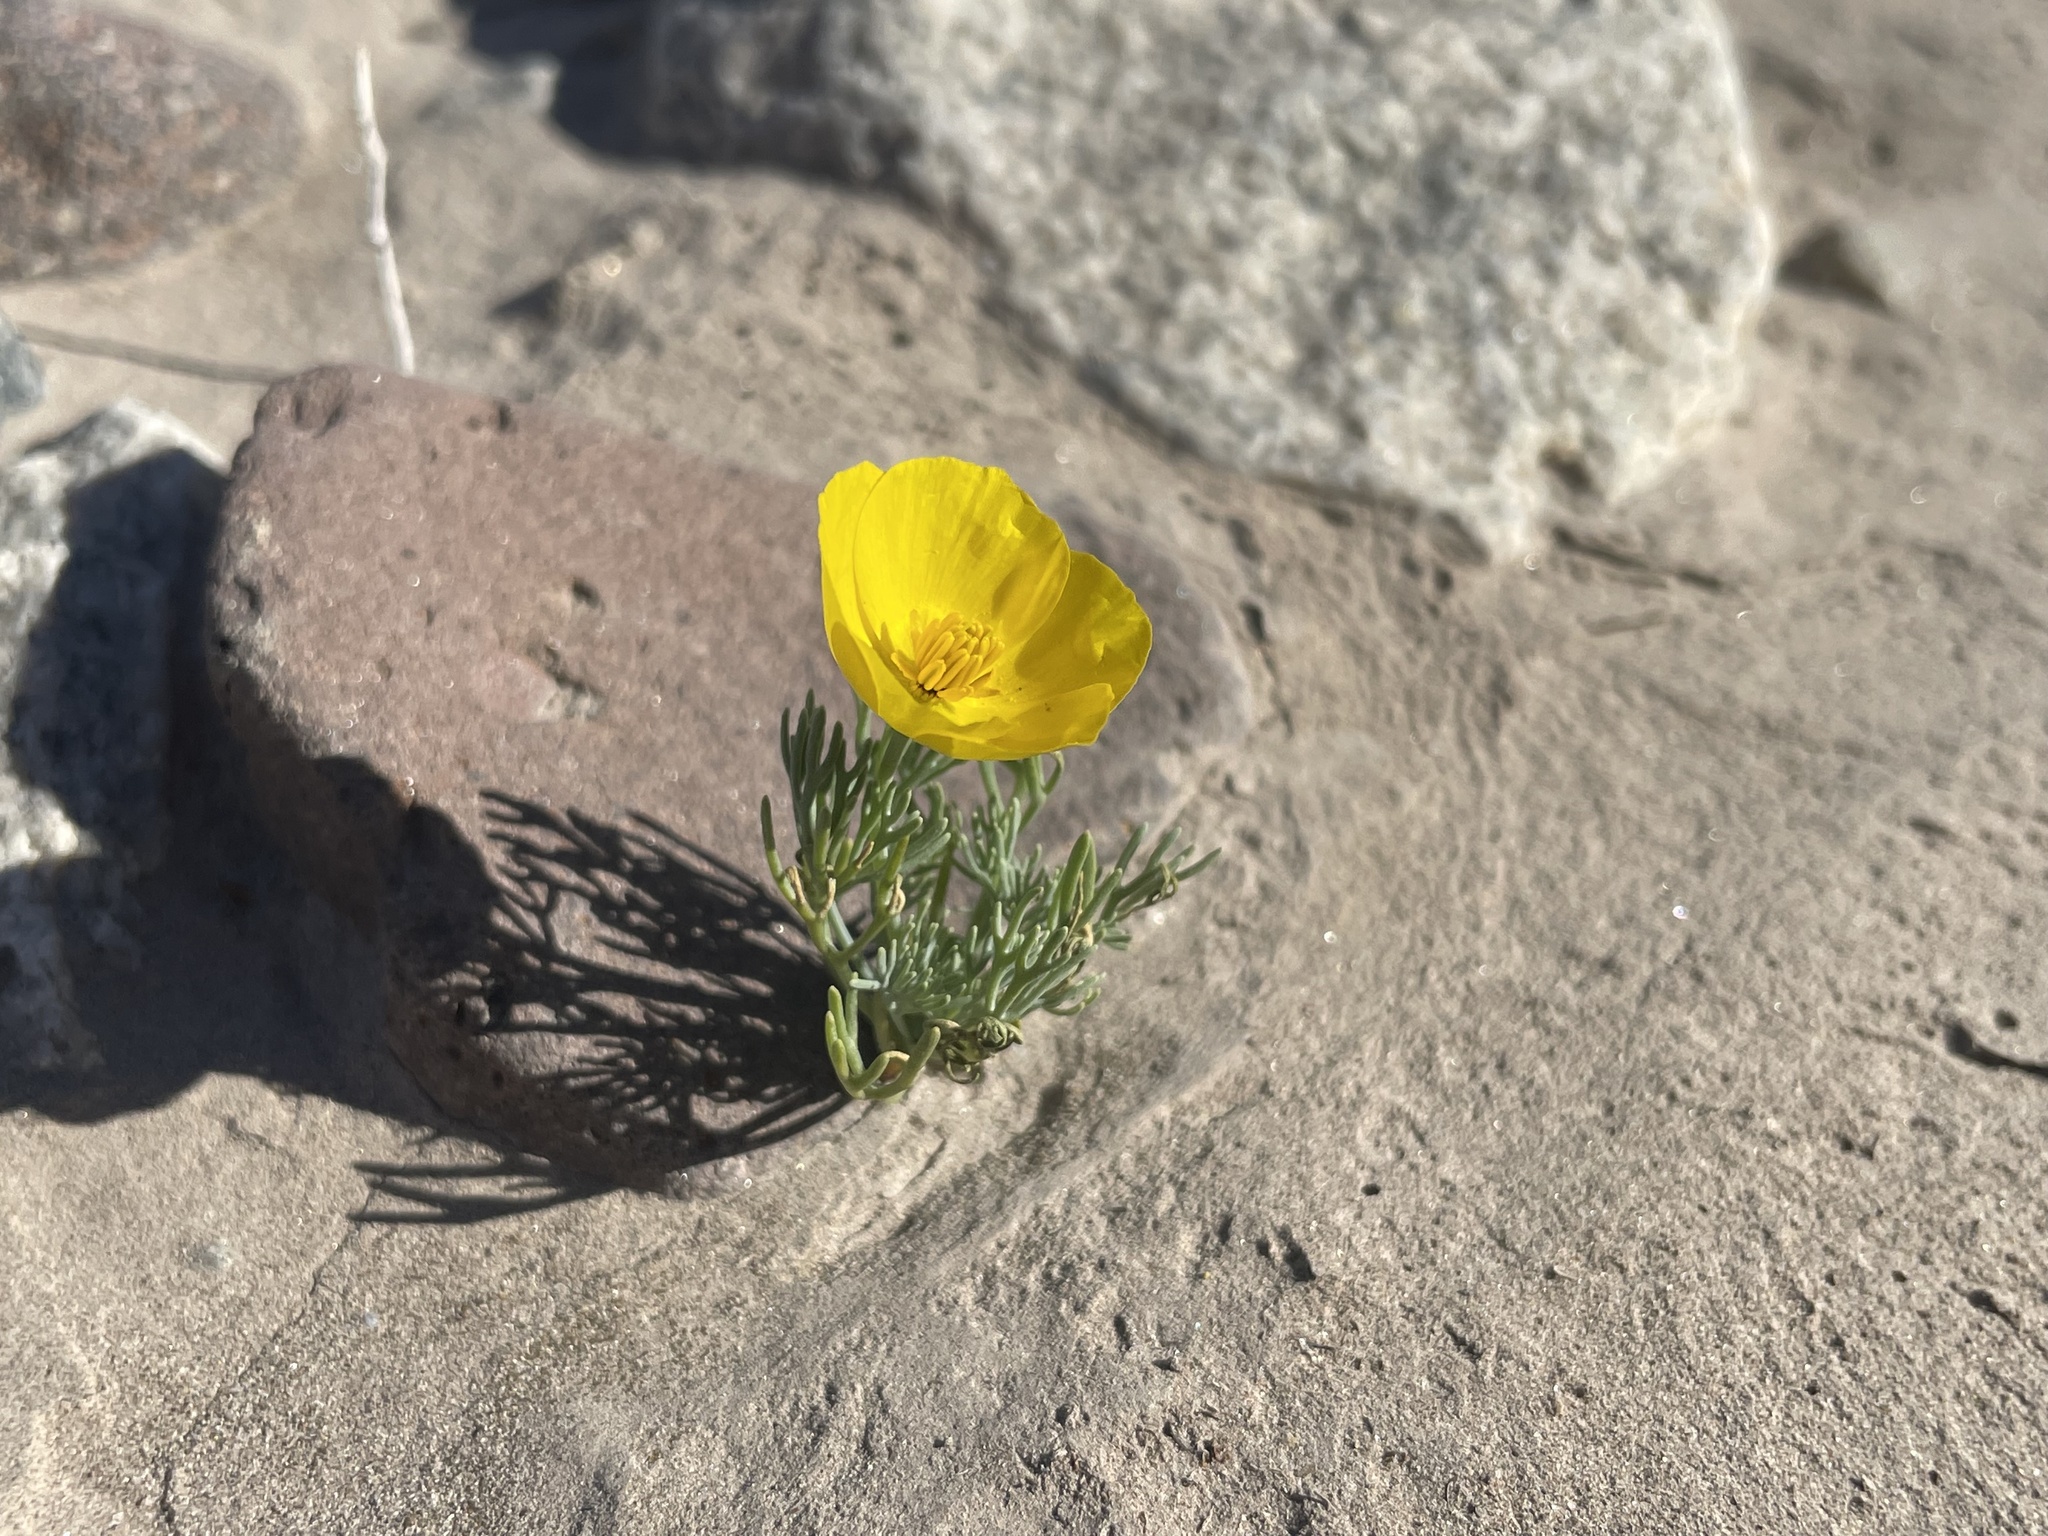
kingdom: Plantae
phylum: Tracheophyta
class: Magnoliopsida
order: Ranunculales
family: Papaveraceae
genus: Eschscholzia
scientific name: Eschscholzia glyptosperma
